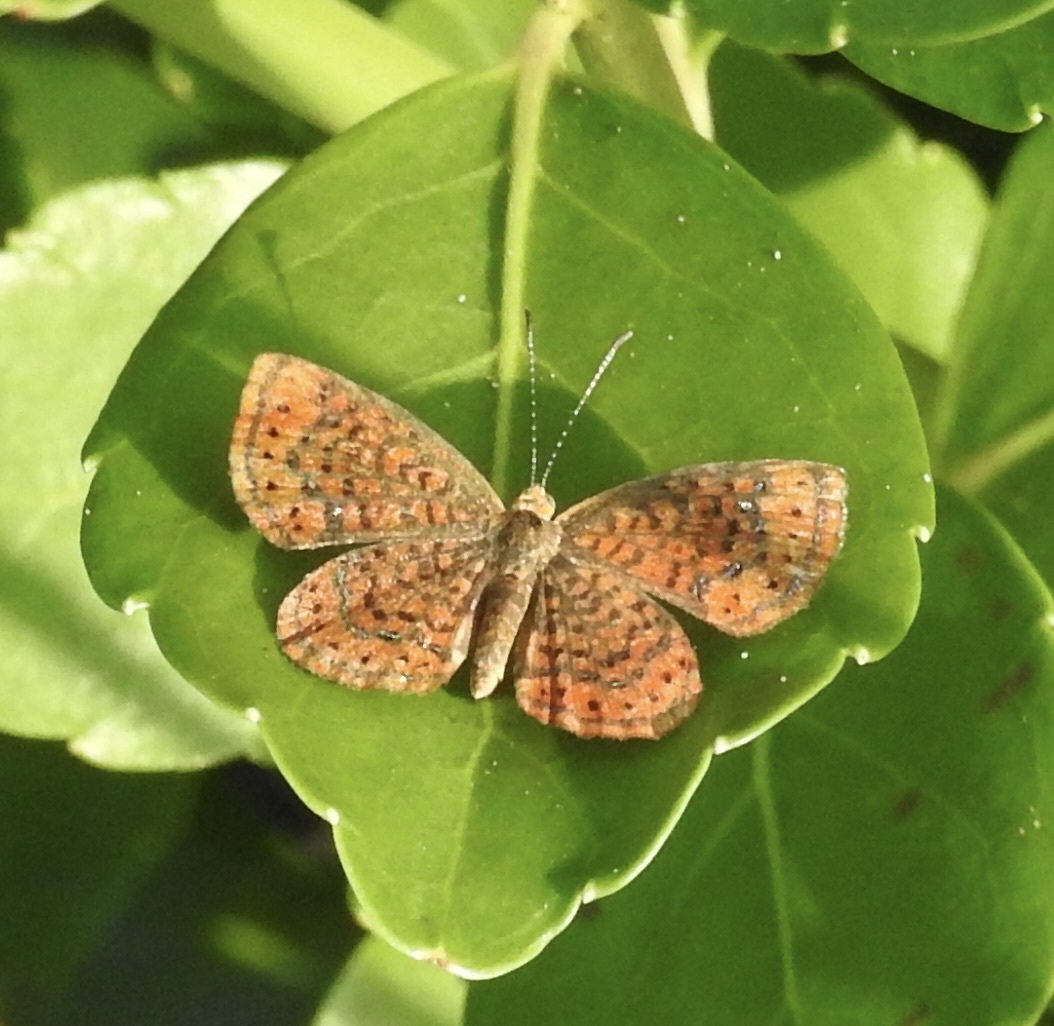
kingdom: Animalia
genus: Calephelis
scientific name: Calephelis virginiensis
